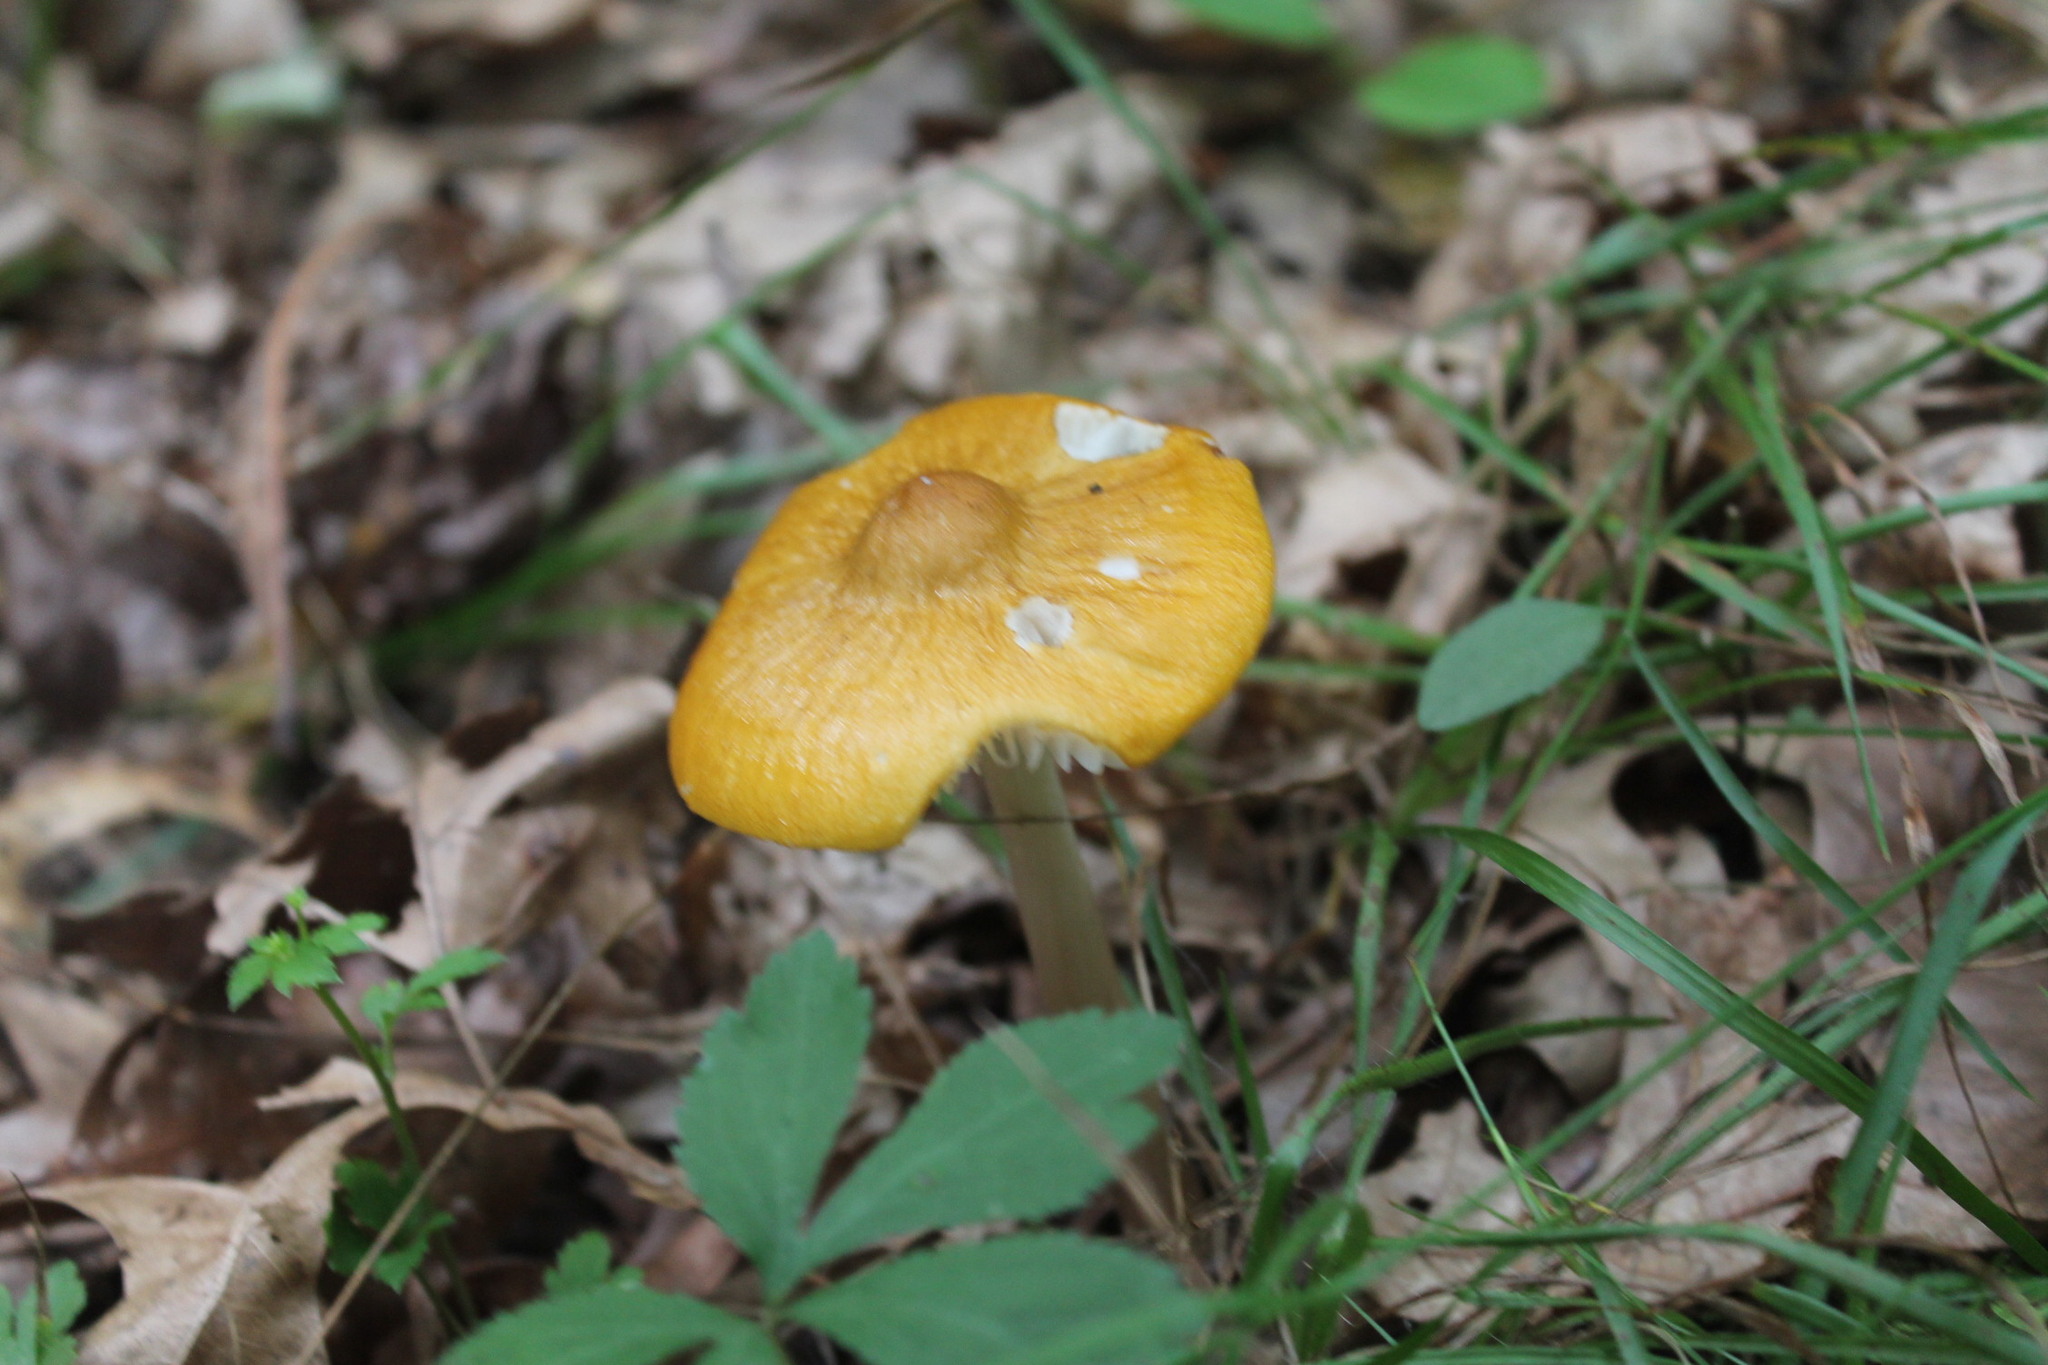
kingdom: Fungi
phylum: Basidiomycota
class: Agaricomycetes
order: Agaricales
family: Pluteaceae
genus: Pluteus
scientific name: Pluteus chrysophlebius
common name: Yellow deer mushroom
